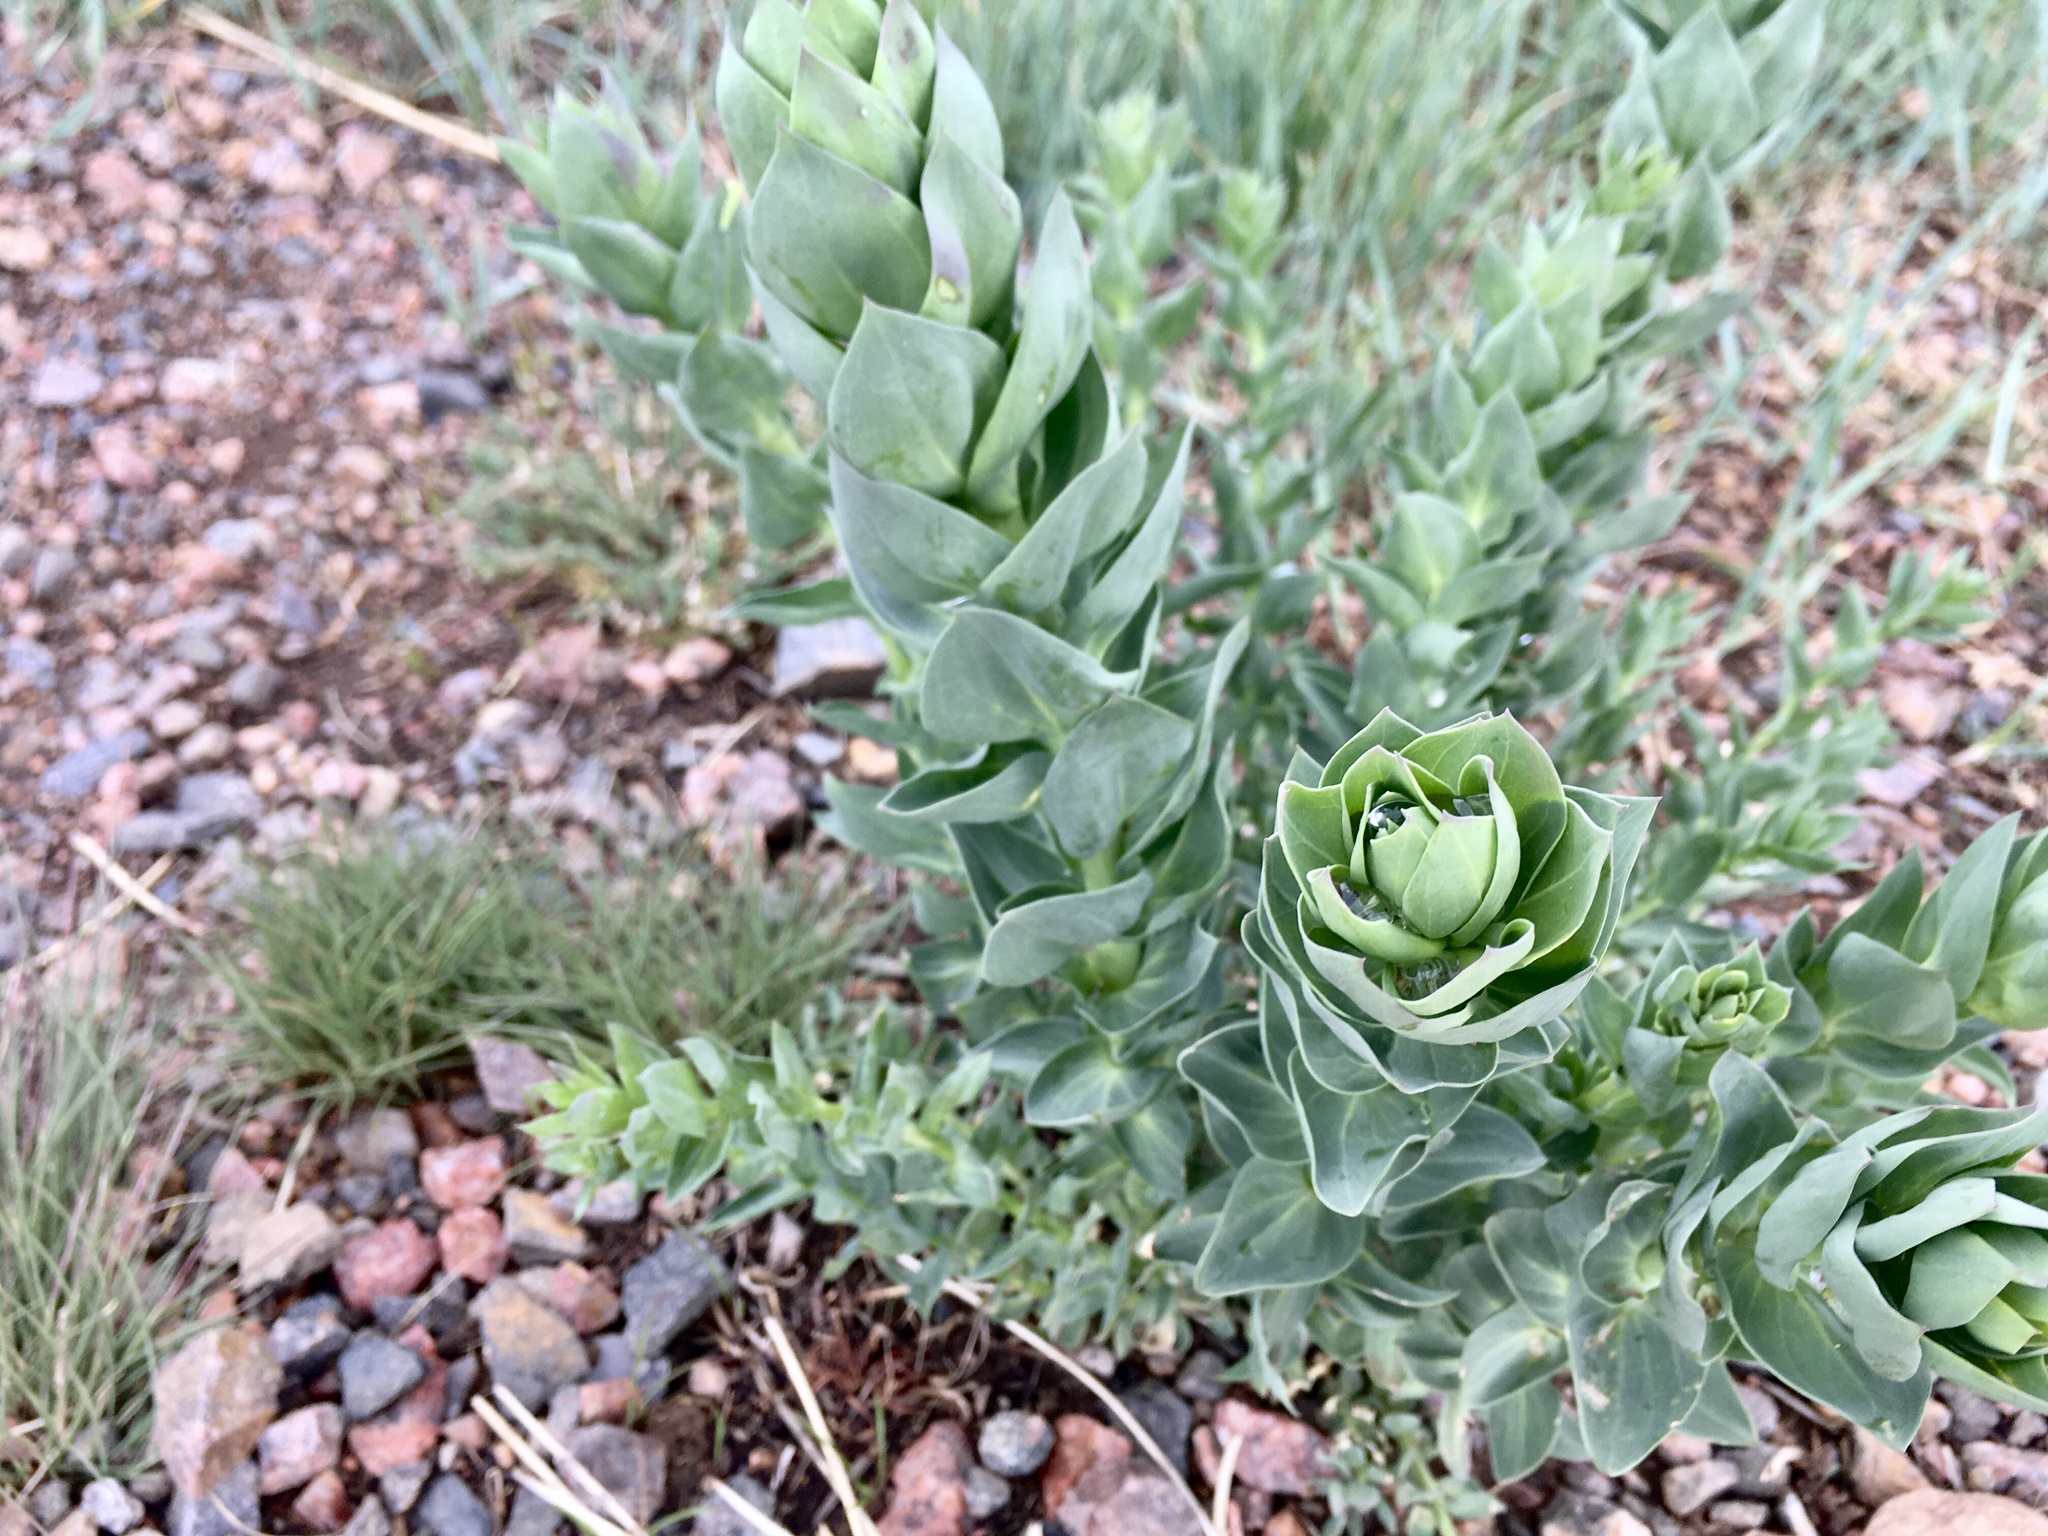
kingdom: Plantae
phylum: Tracheophyta
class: Magnoliopsida
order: Lamiales
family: Plantaginaceae
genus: Linaria
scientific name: Linaria dalmatica
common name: Dalmatian toadflax
